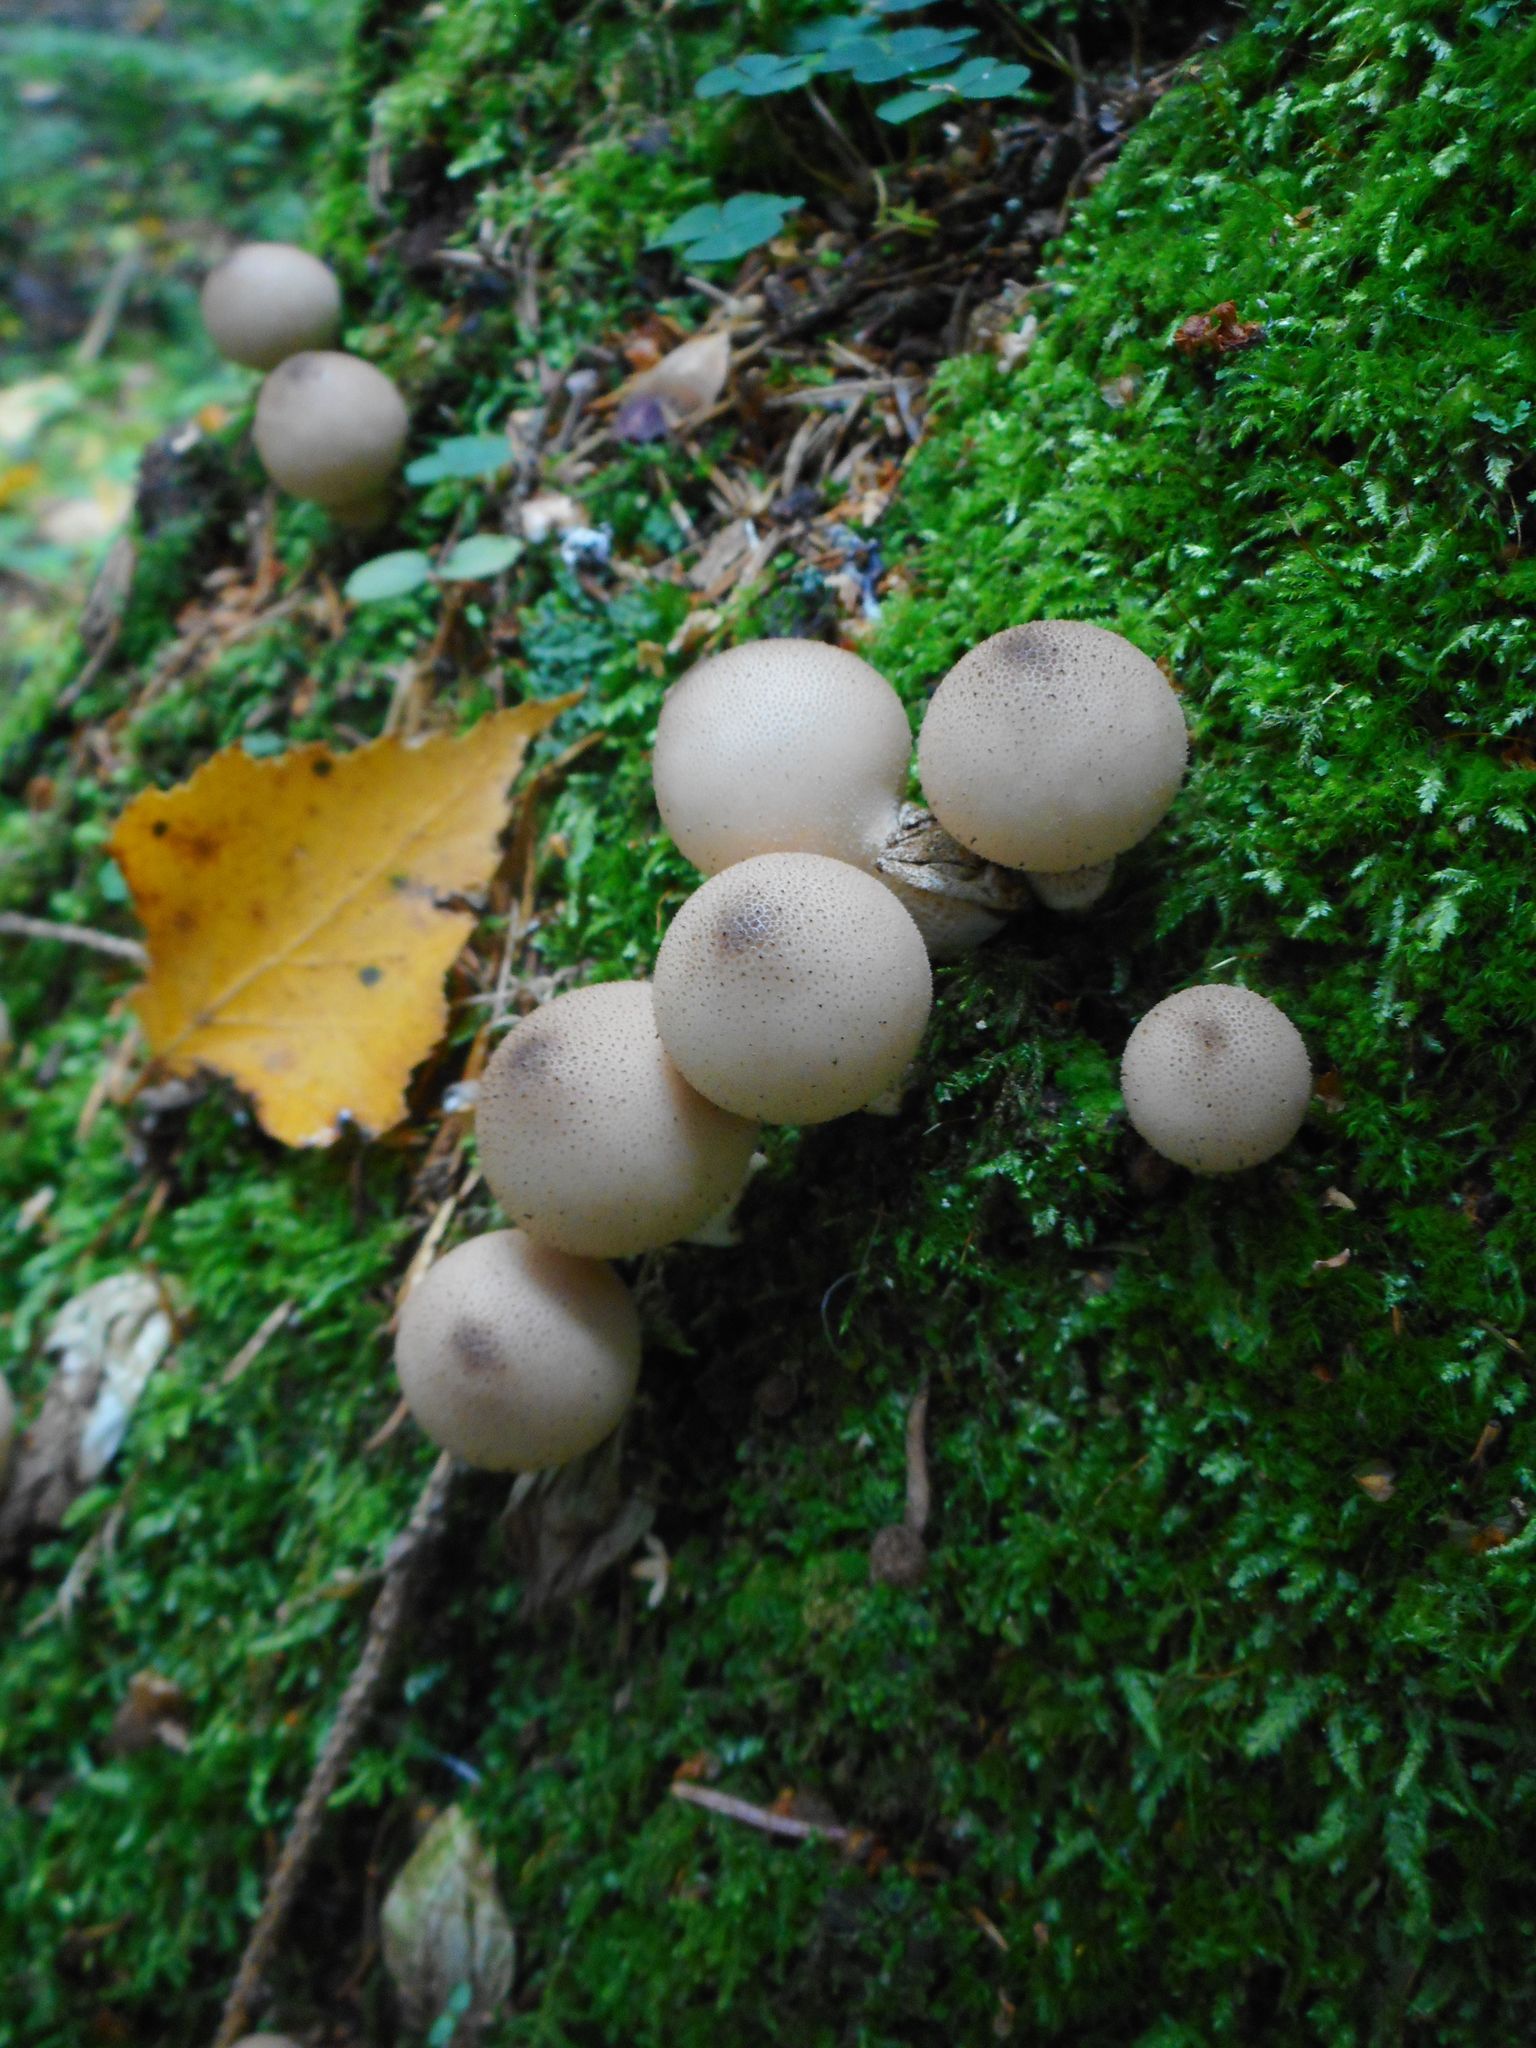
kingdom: Fungi
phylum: Basidiomycota
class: Agaricomycetes
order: Agaricales
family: Lycoperdaceae
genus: Apioperdon
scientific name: Apioperdon pyriforme
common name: Pear-shaped puffball
